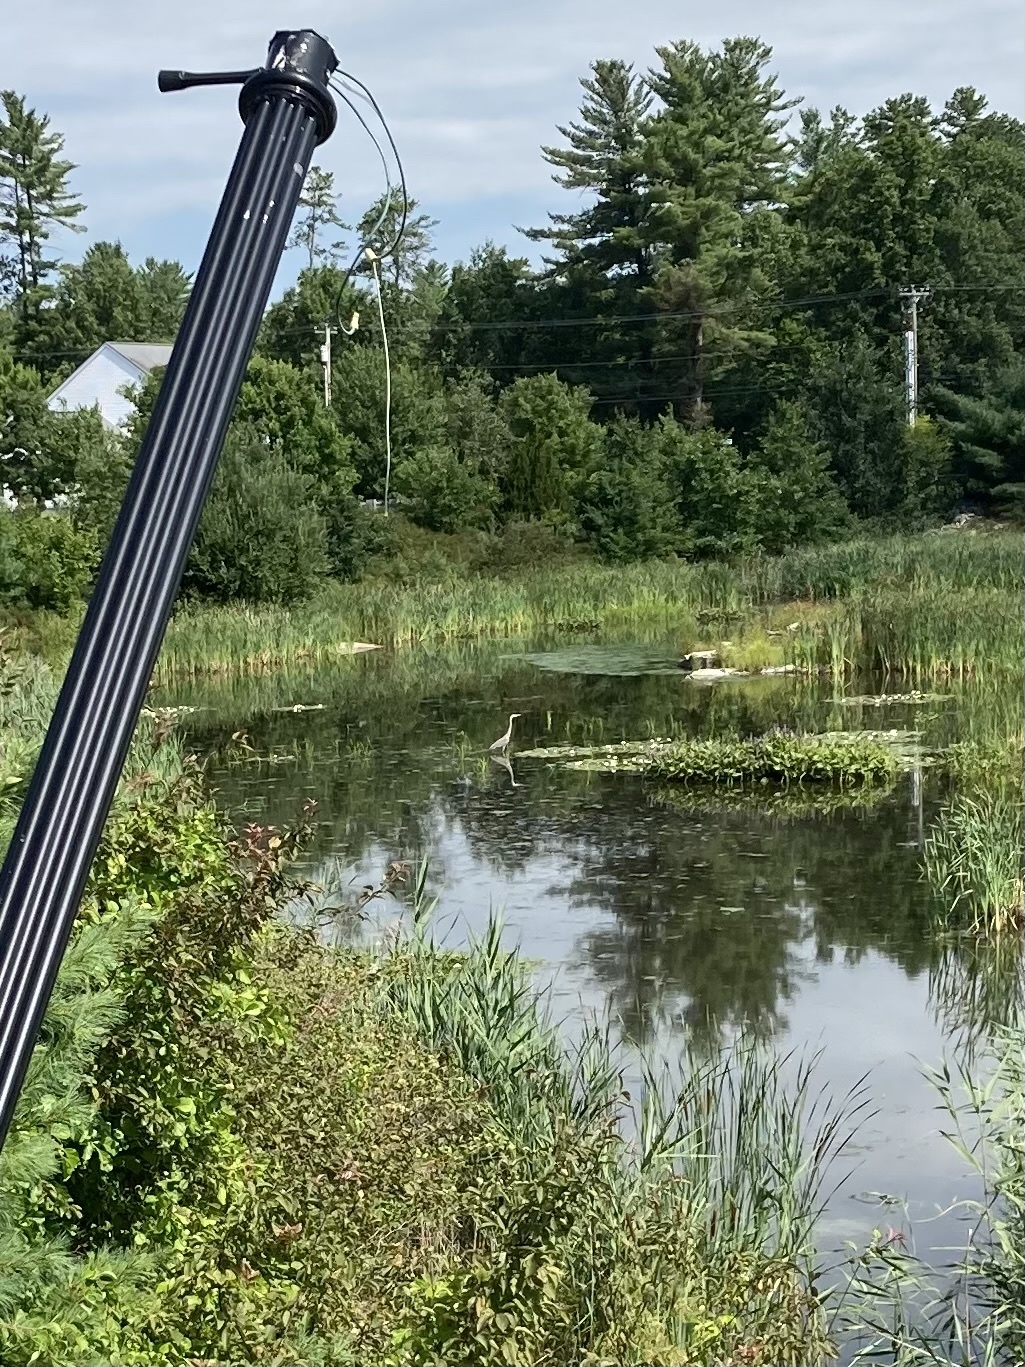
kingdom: Animalia
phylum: Chordata
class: Aves
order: Pelecaniformes
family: Ardeidae
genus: Ardea
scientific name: Ardea herodias
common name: Great blue heron
